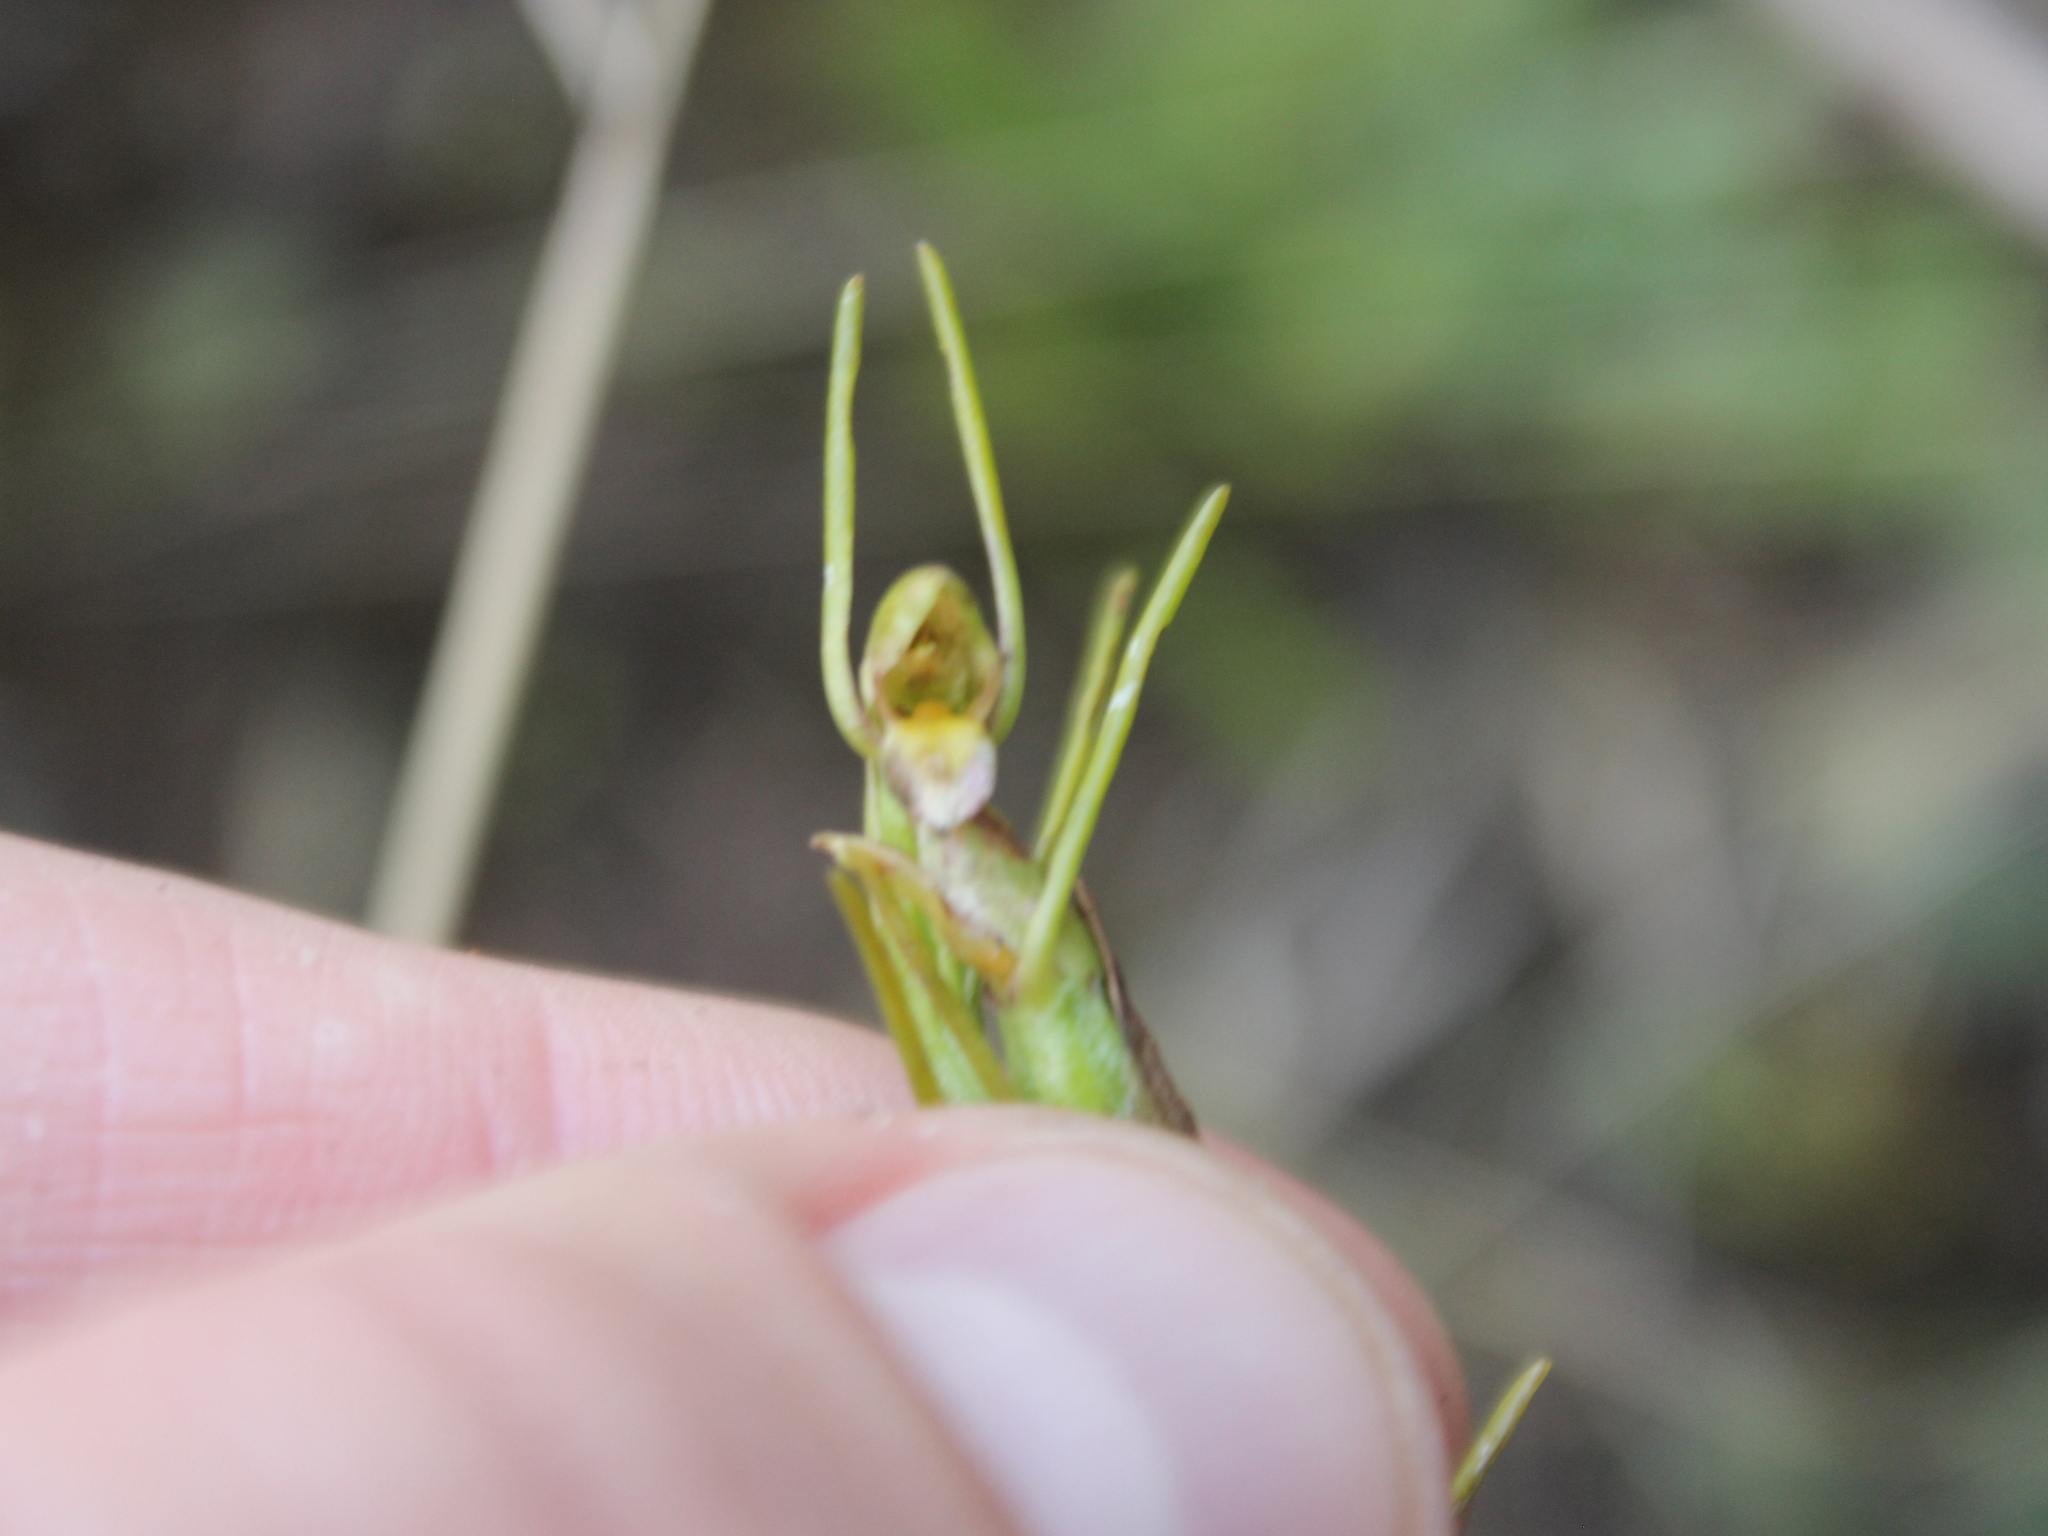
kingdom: Plantae
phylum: Tracheophyta
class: Liliopsida
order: Asparagales
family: Orchidaceae
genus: Orthoceras
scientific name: Orthoceras novae-zeelandiae
